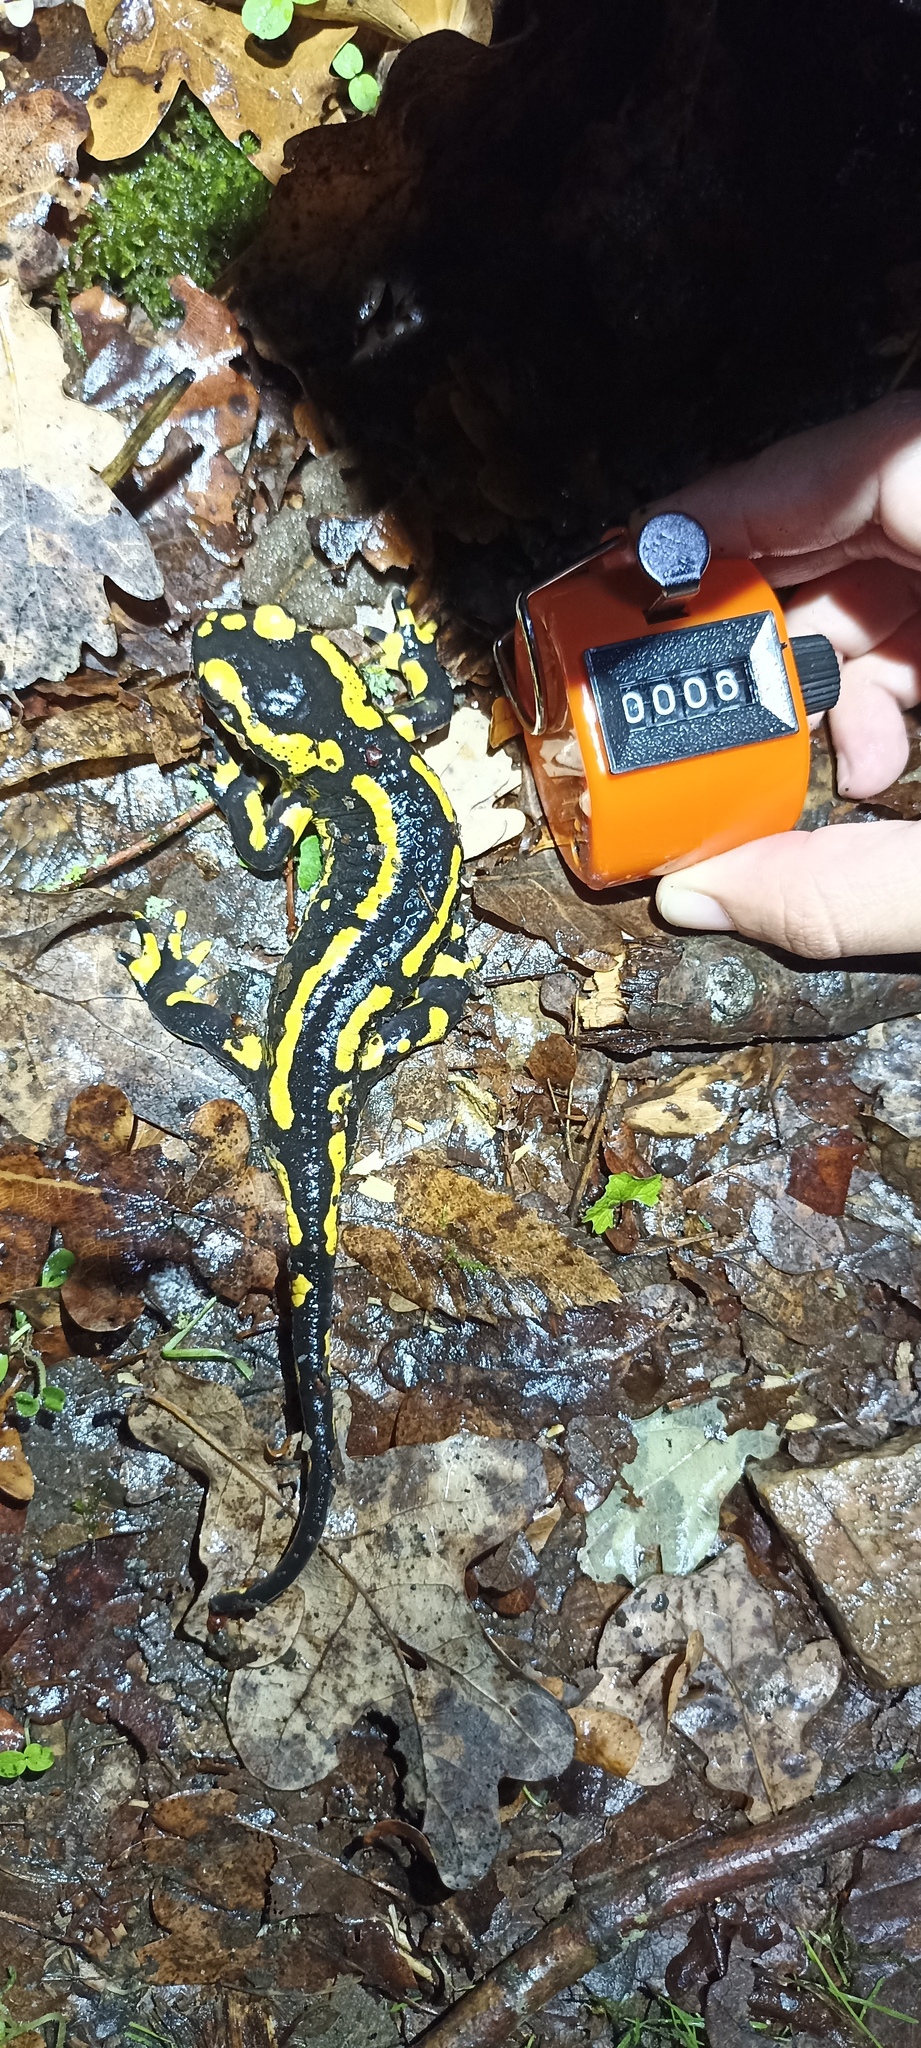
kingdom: Animalia
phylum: Chordata
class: Amphibia
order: Caudata
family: Salamandridae
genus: Salamandra
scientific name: Salamandra salamandra
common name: Fire salamander
